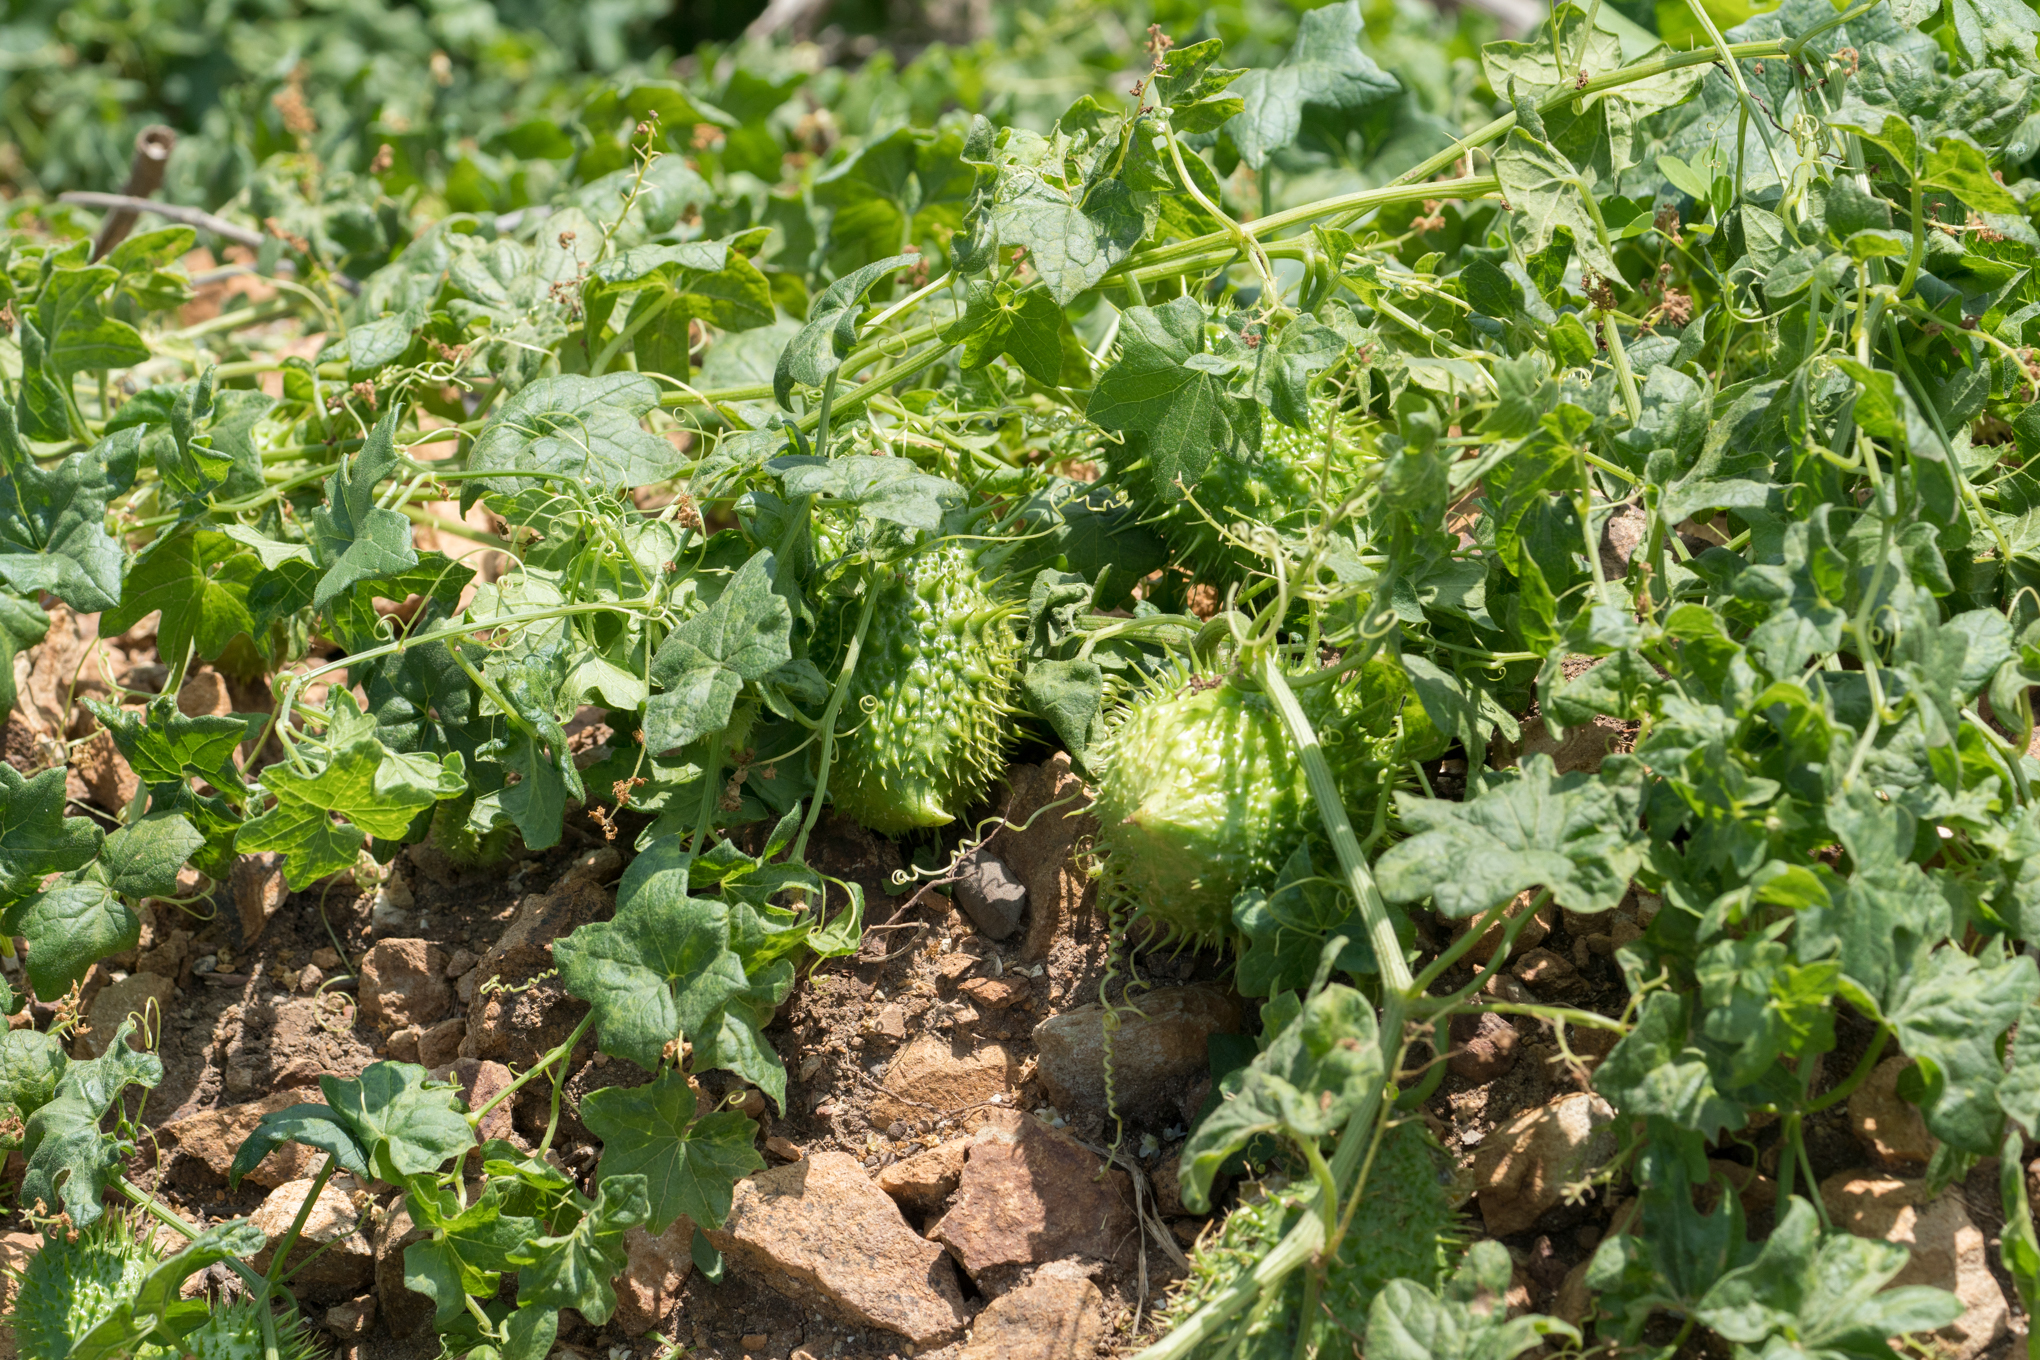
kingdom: Plantae
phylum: Tracheophyta
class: Magnoliopsida
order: Cucurbitales
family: Cucurbitaceae
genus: Marah
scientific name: Marah macrocarpa
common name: Cucamonga manroot
